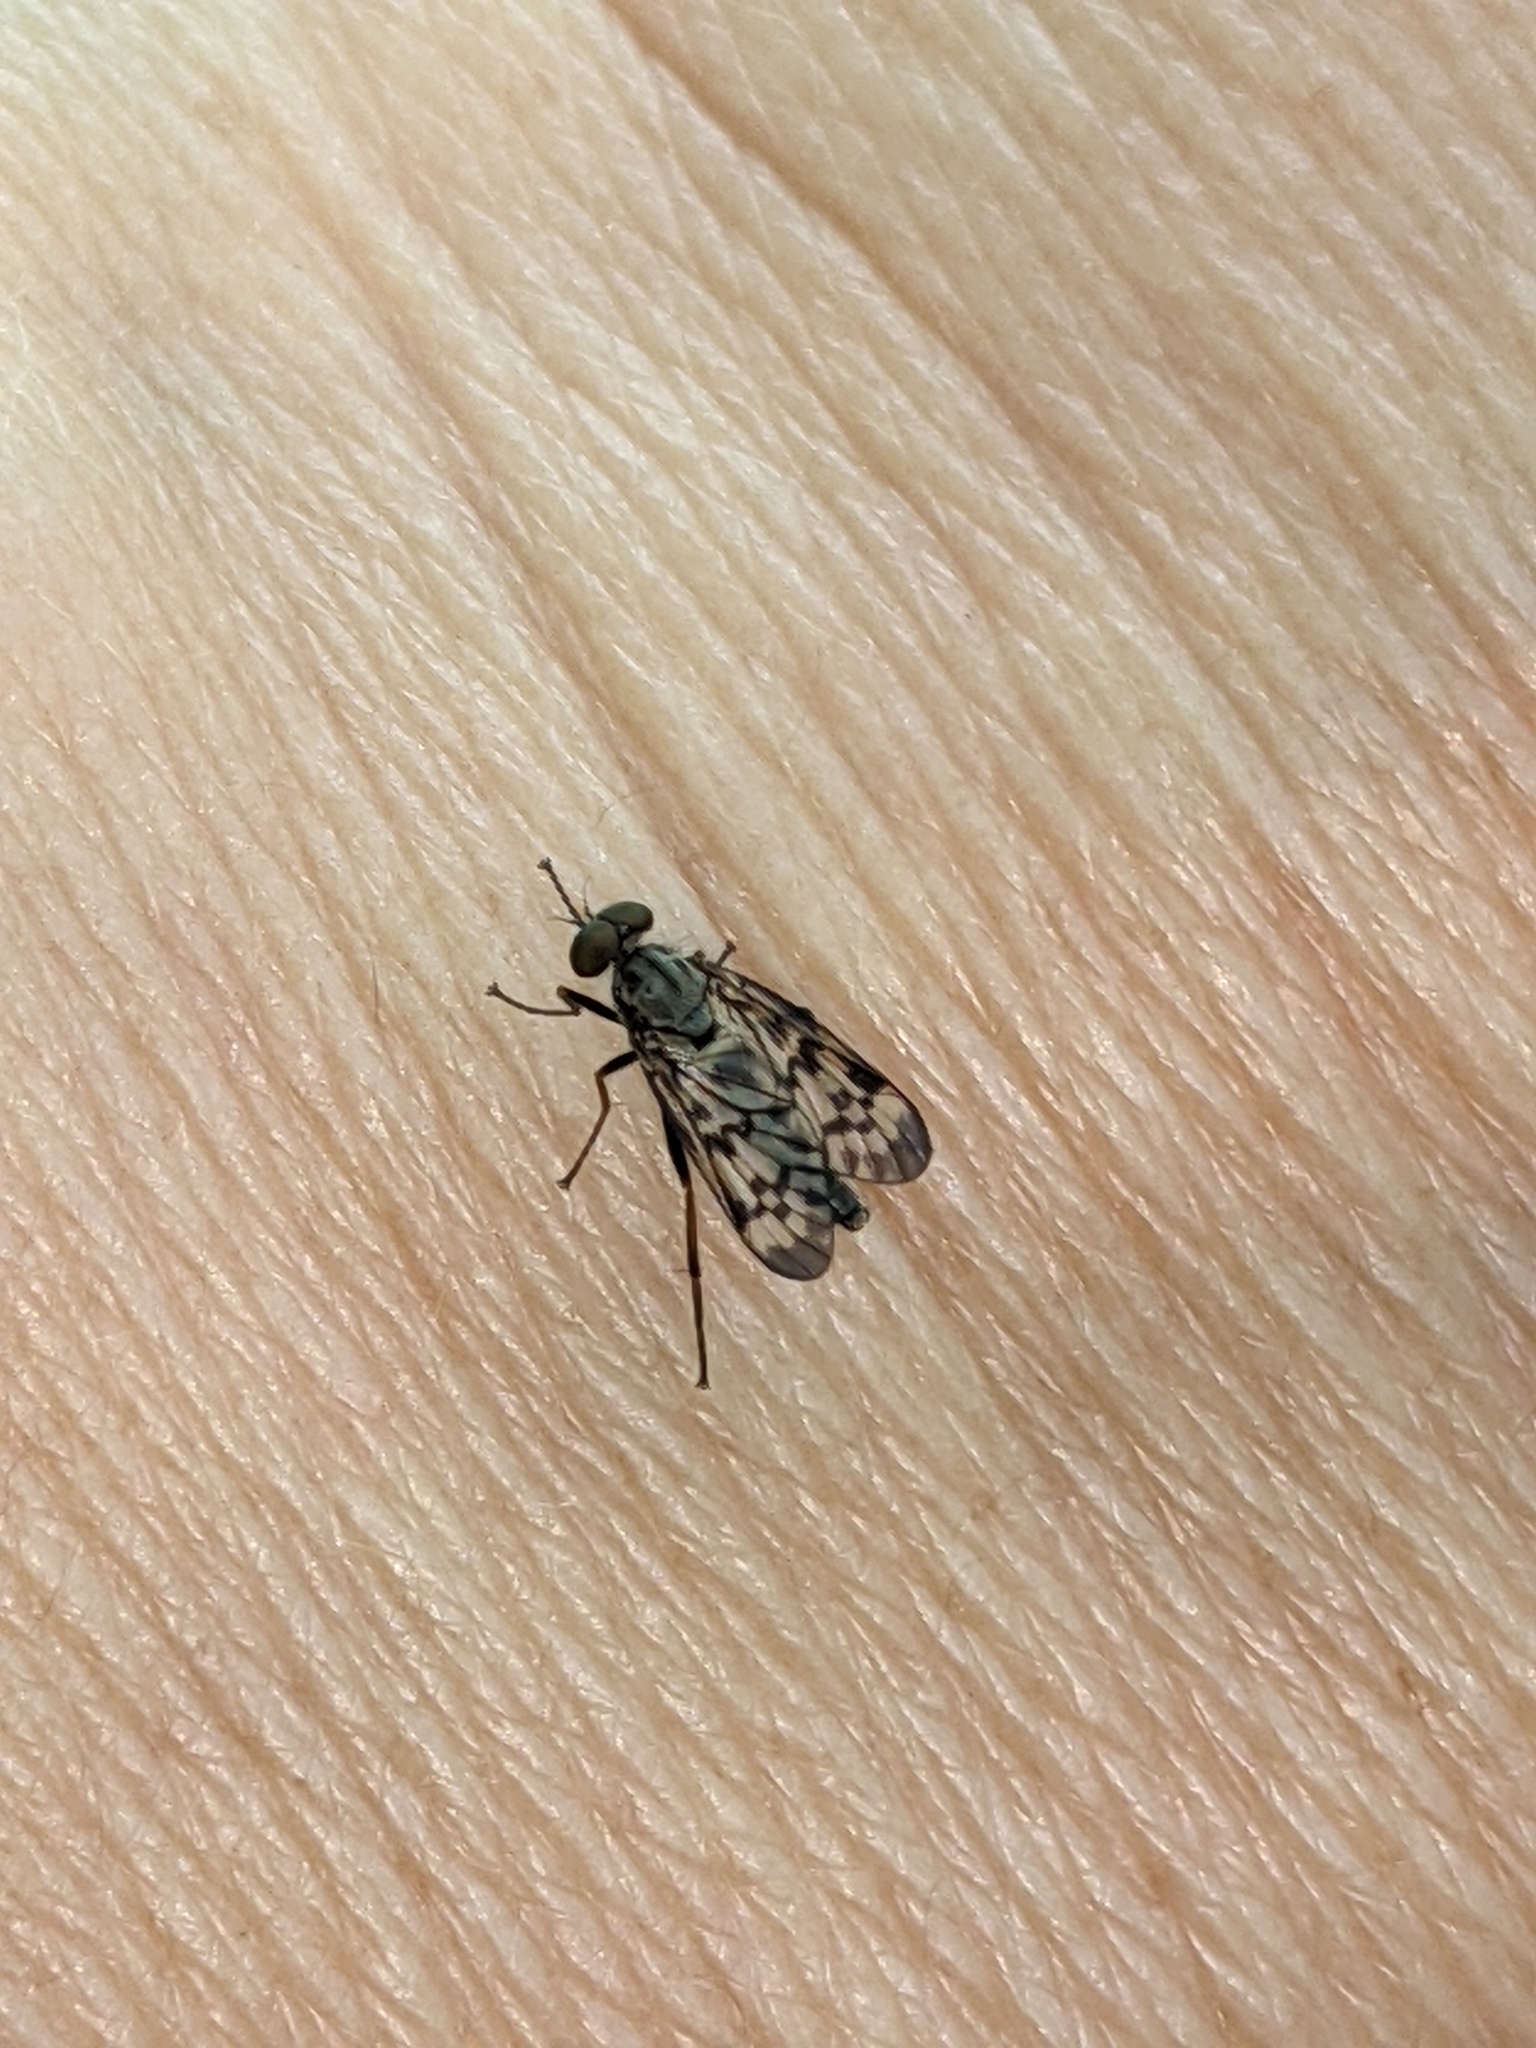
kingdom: Animalia
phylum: Arthropoda
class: Insecta
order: Diptera
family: Rhagionidae
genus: Rhagio
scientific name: Rhagio punctipennis
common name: Lesser variegated snipe fly
